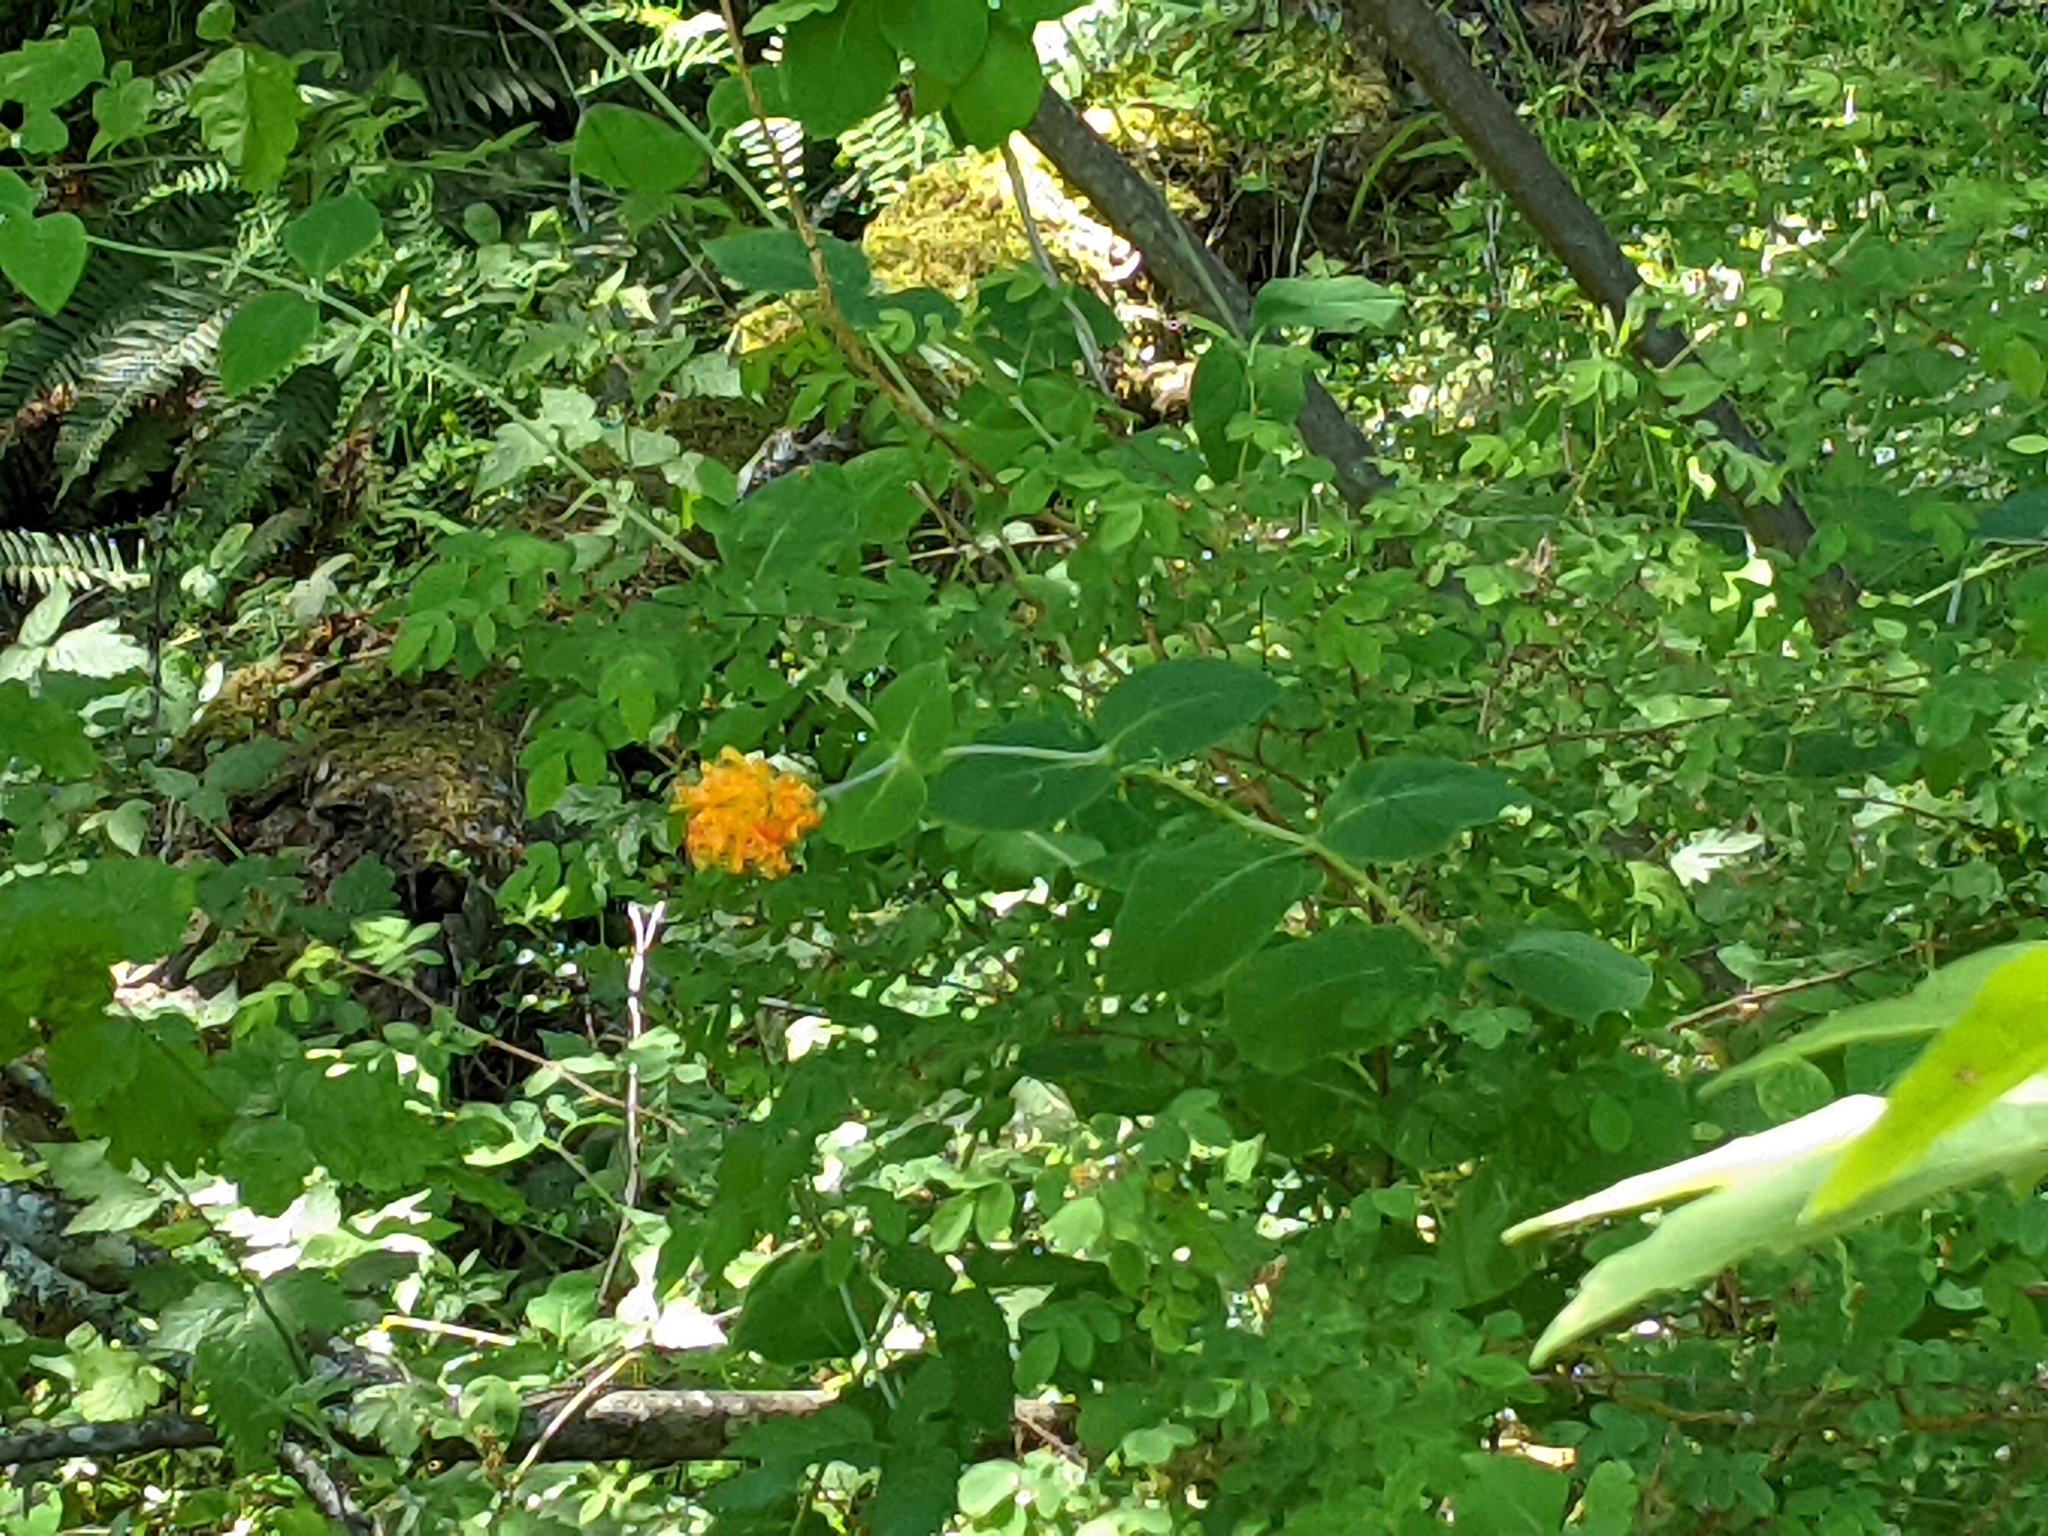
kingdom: Plantae
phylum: Tracheophyta
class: Magnoliopsida
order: Dipsacales
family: Caprifoliaceae
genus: Lonicera
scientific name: Lonicera ciliosa
